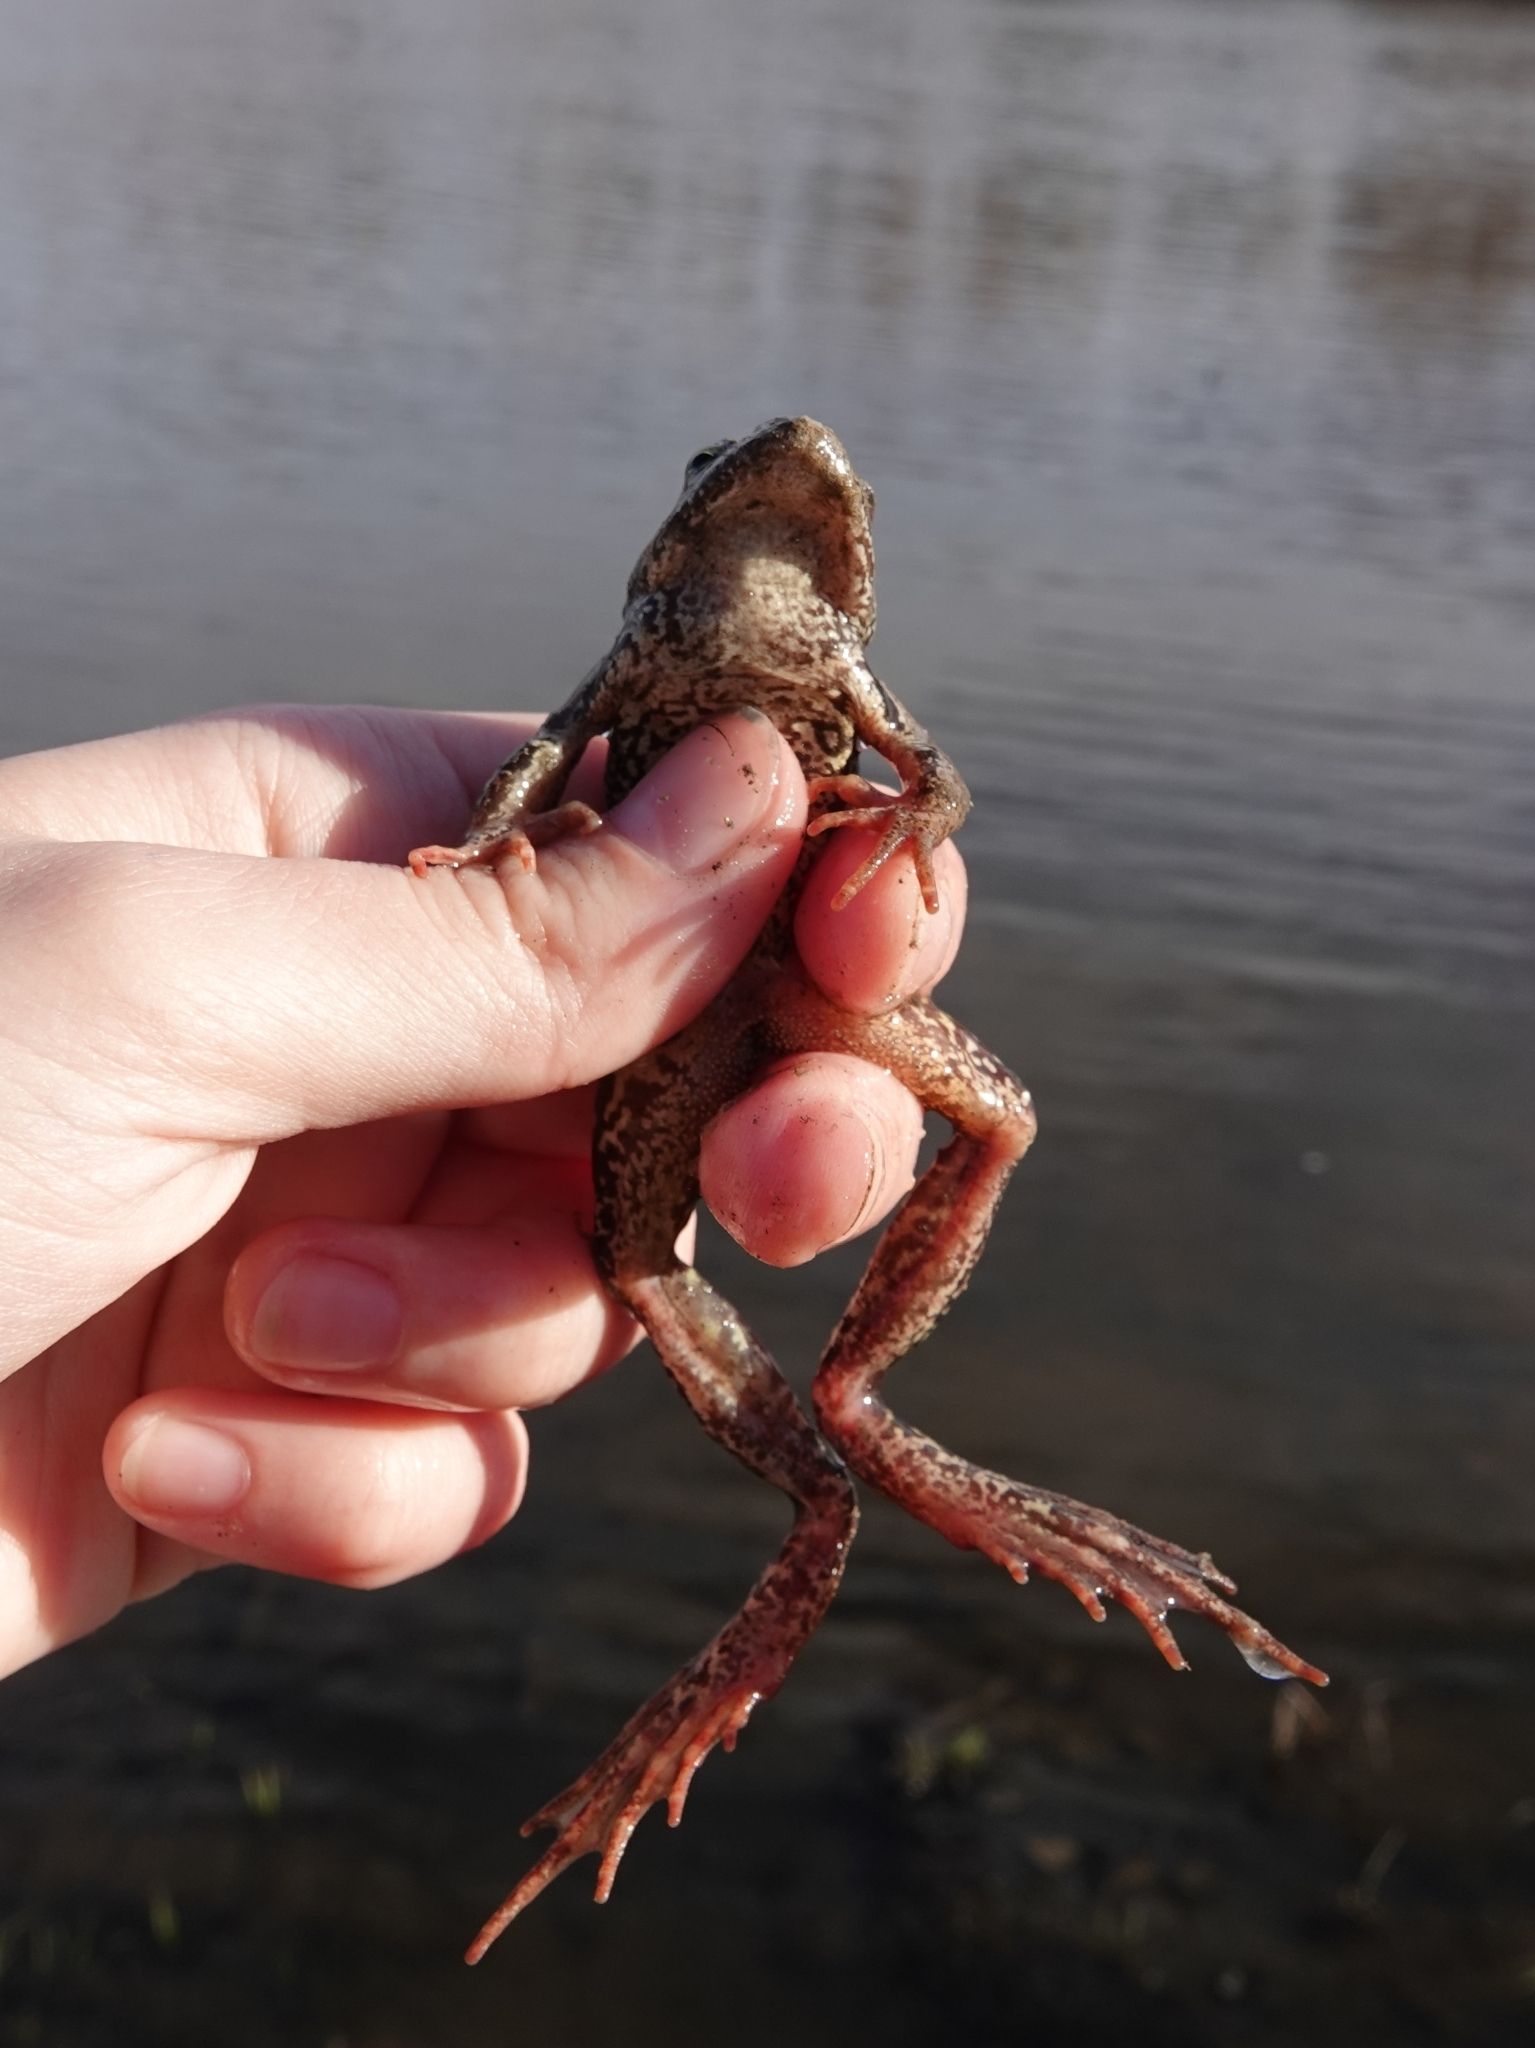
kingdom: Animalia
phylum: Chordata
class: Amphibia
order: Anura
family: Ranidae
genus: Rana
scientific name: Rana temporaria
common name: Common frog
